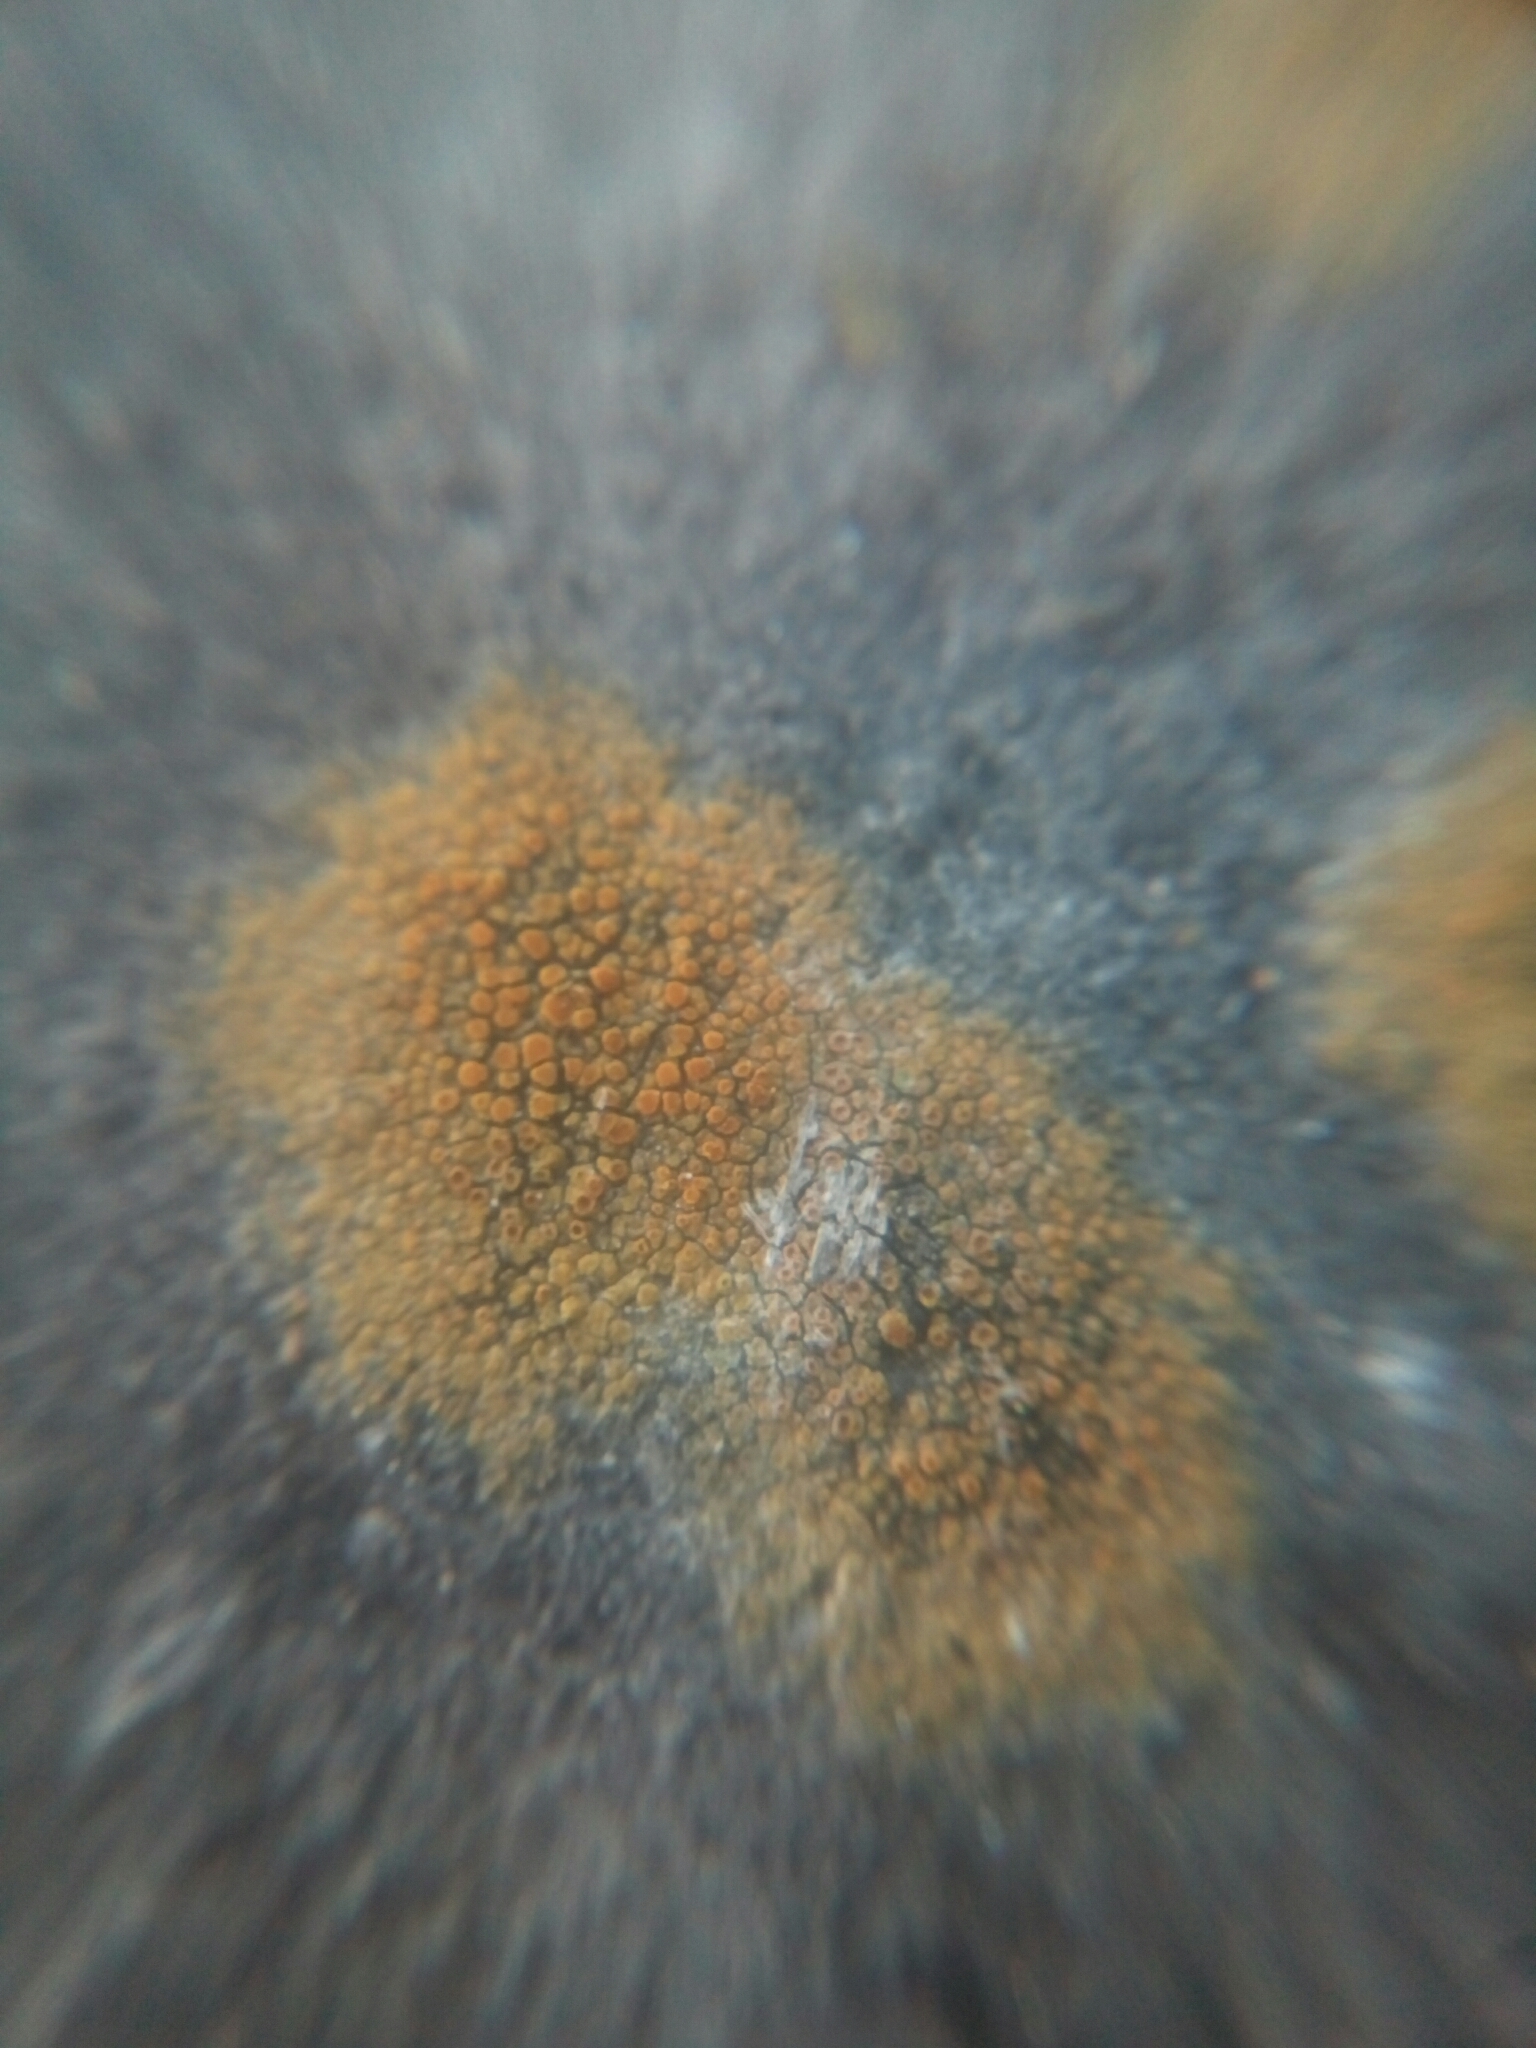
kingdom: Fungi
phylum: Ascomycota
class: Lecanoromycetes
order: Teloschistales
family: Teloschistaceae
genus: Gyalolechia
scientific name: Gyalolechia flavovirescens
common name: Sulphur firedot
